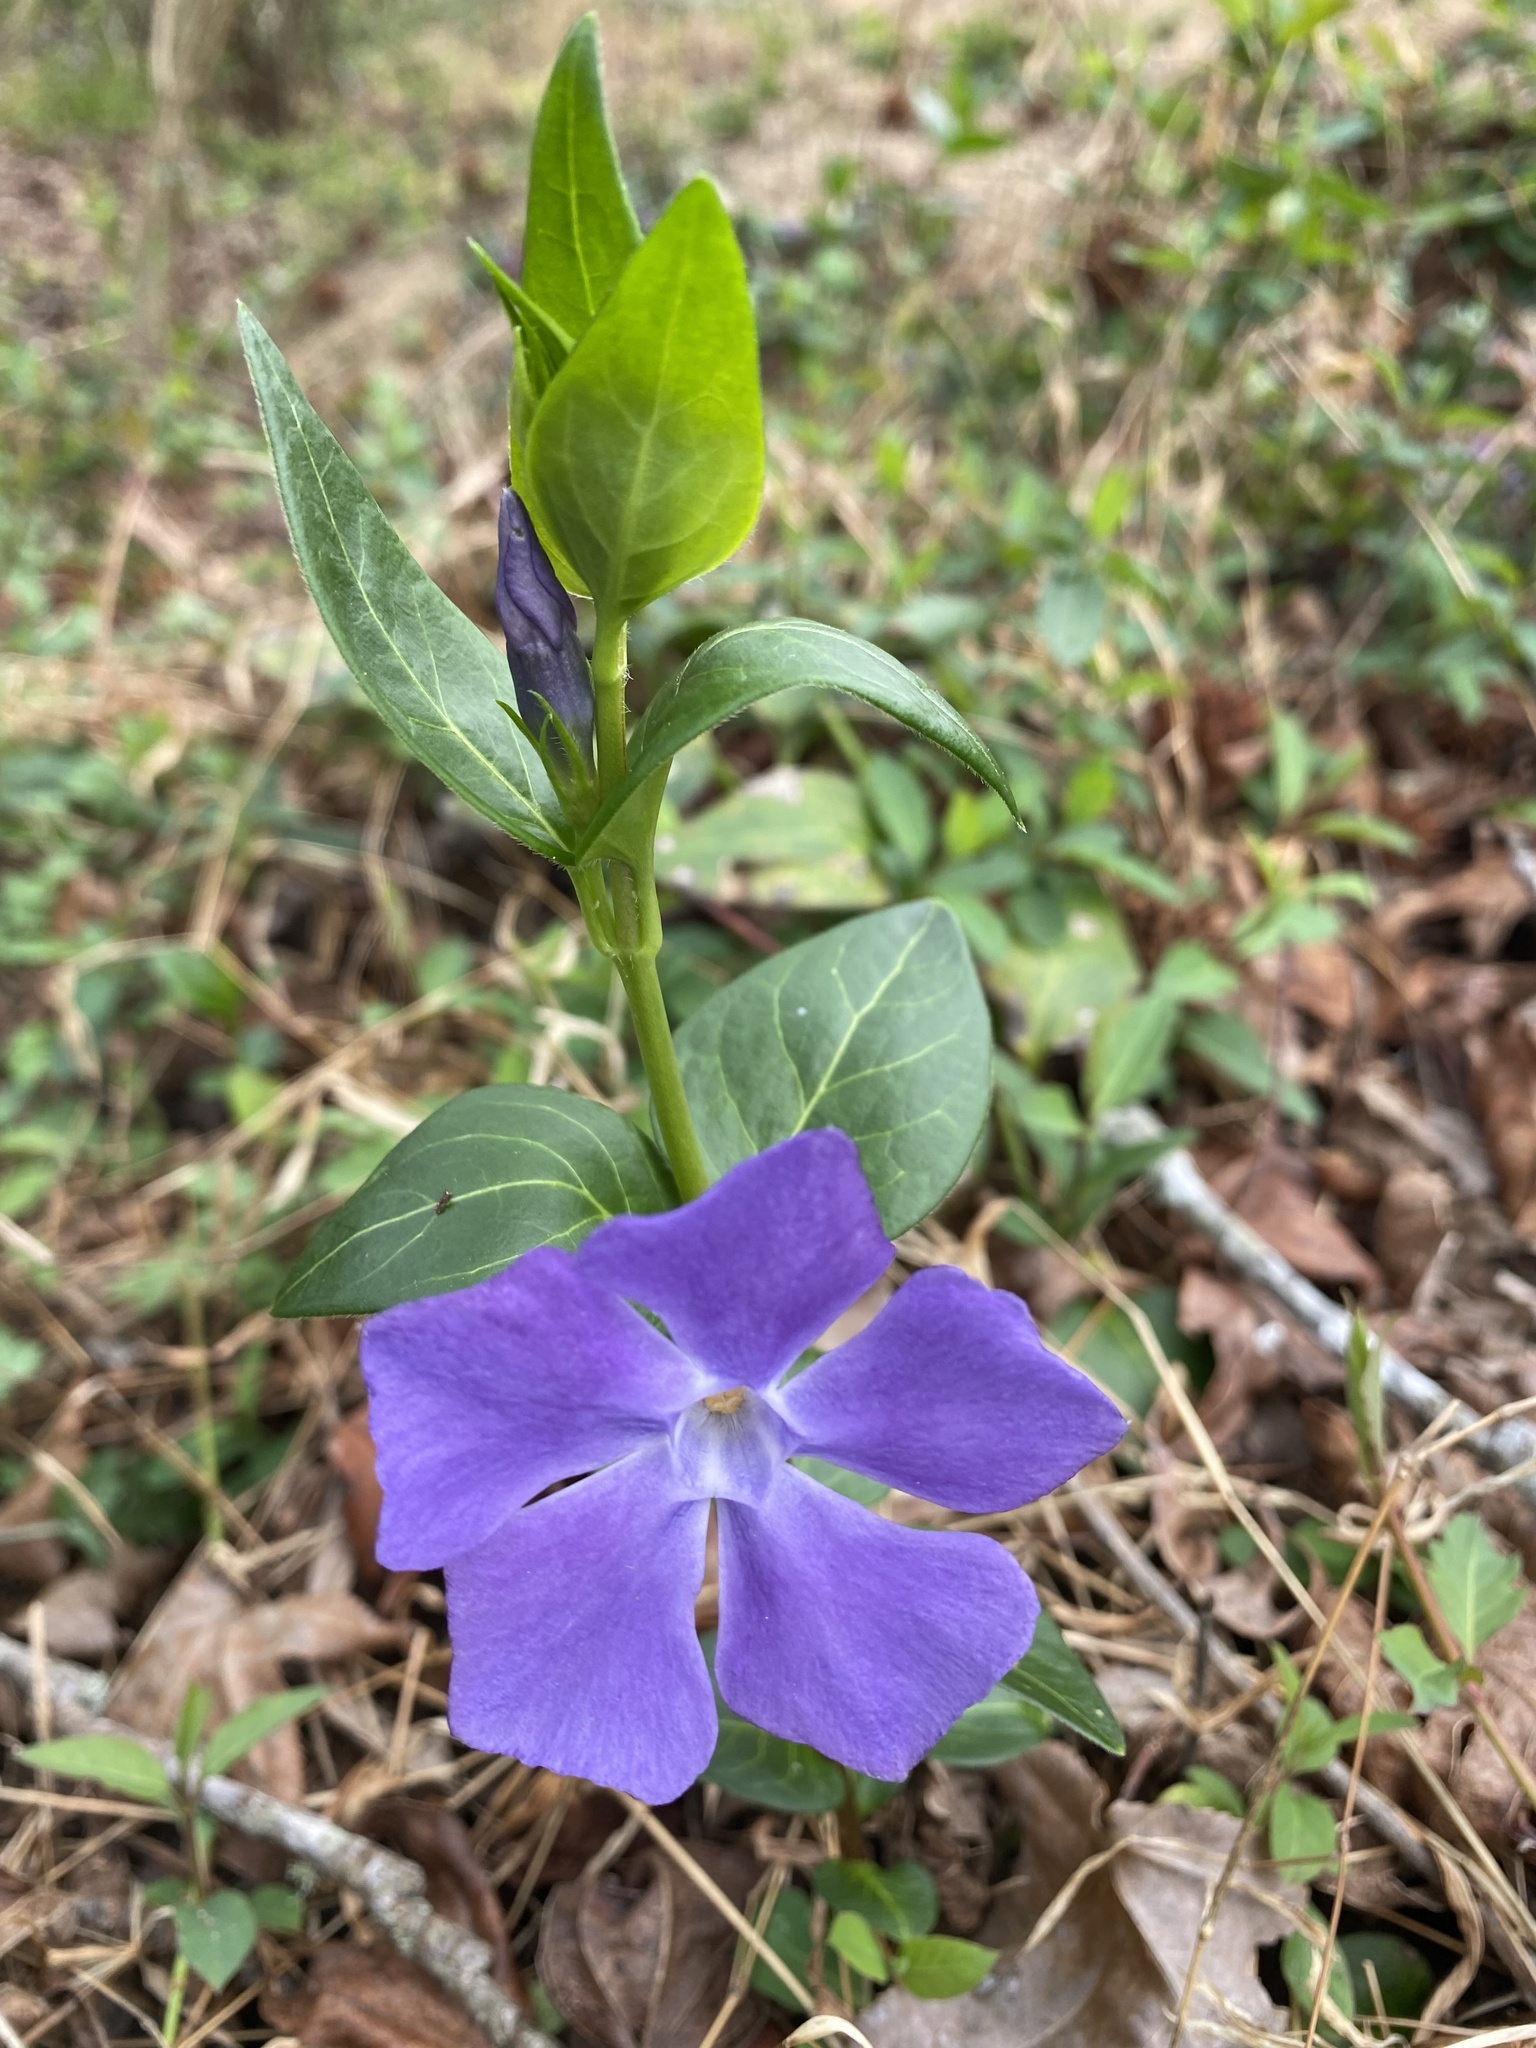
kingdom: Plantae
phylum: Tracheophyta
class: Magnoliopsida
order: Gentianales
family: Apocynaceae
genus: Vinca
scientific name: Vinca major
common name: Greater periwinkle
